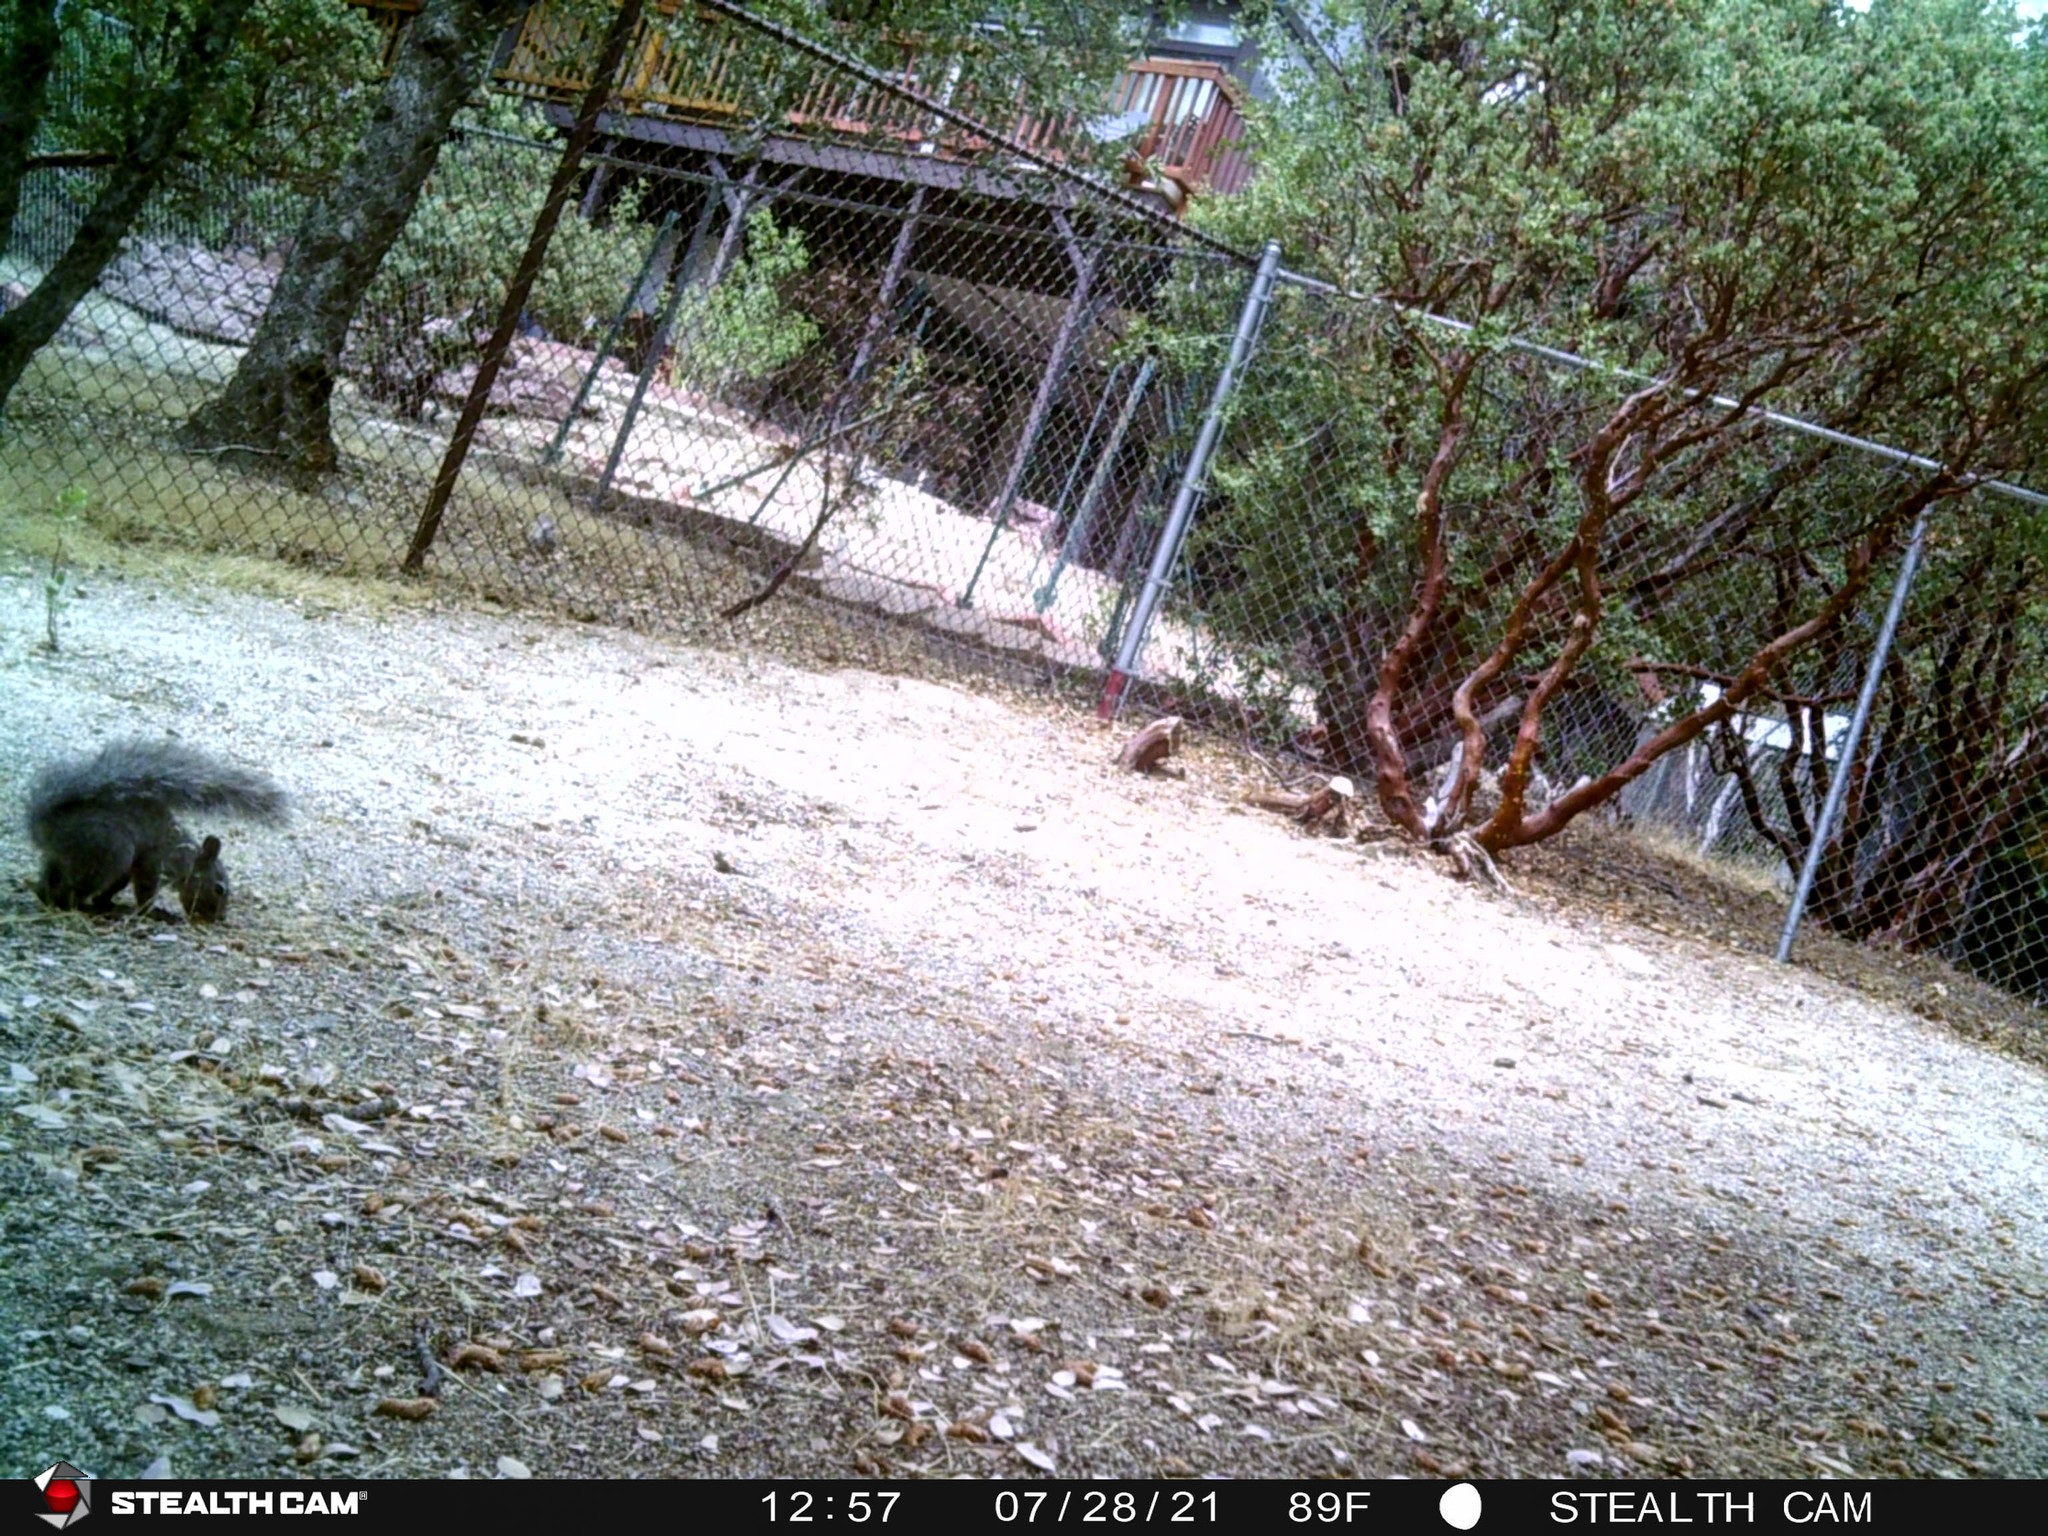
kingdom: Animalia
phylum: Chordata
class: Mammalia
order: Rodentia
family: Sciuridae
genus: Sciurus
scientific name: Sciurus griseus
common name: Western gray squirrel
